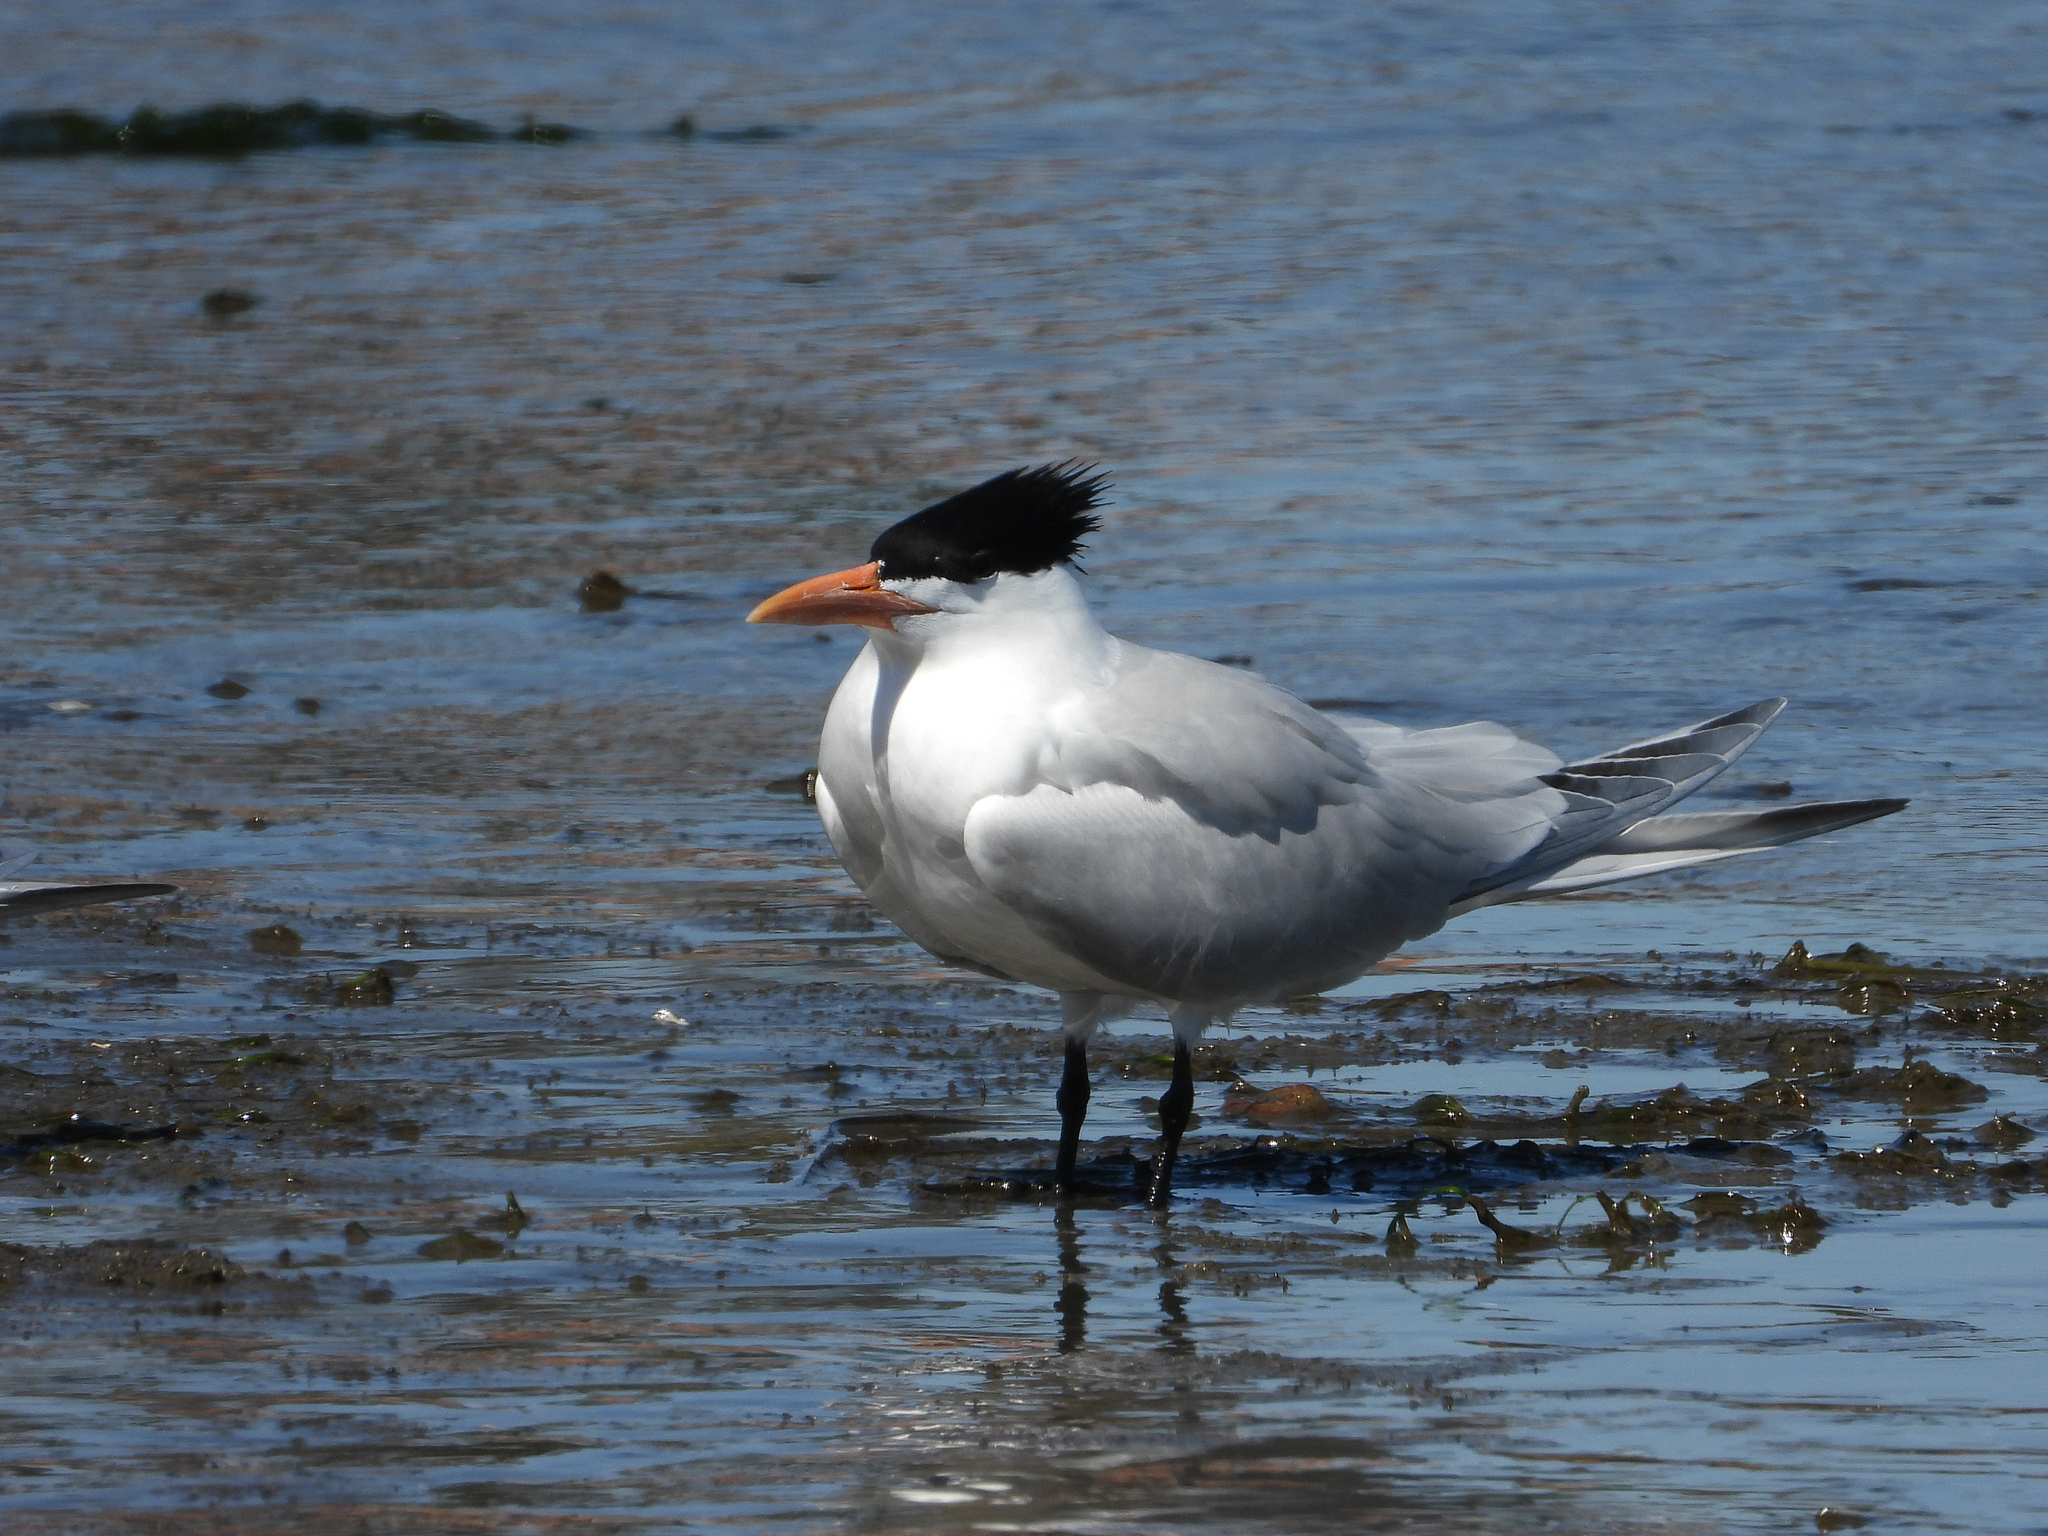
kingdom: Animalia
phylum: Chordata
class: Aves
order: Charadriiformes
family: Laridae
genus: Thalasseus
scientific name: Thalasseus maximus
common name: Royal tern
